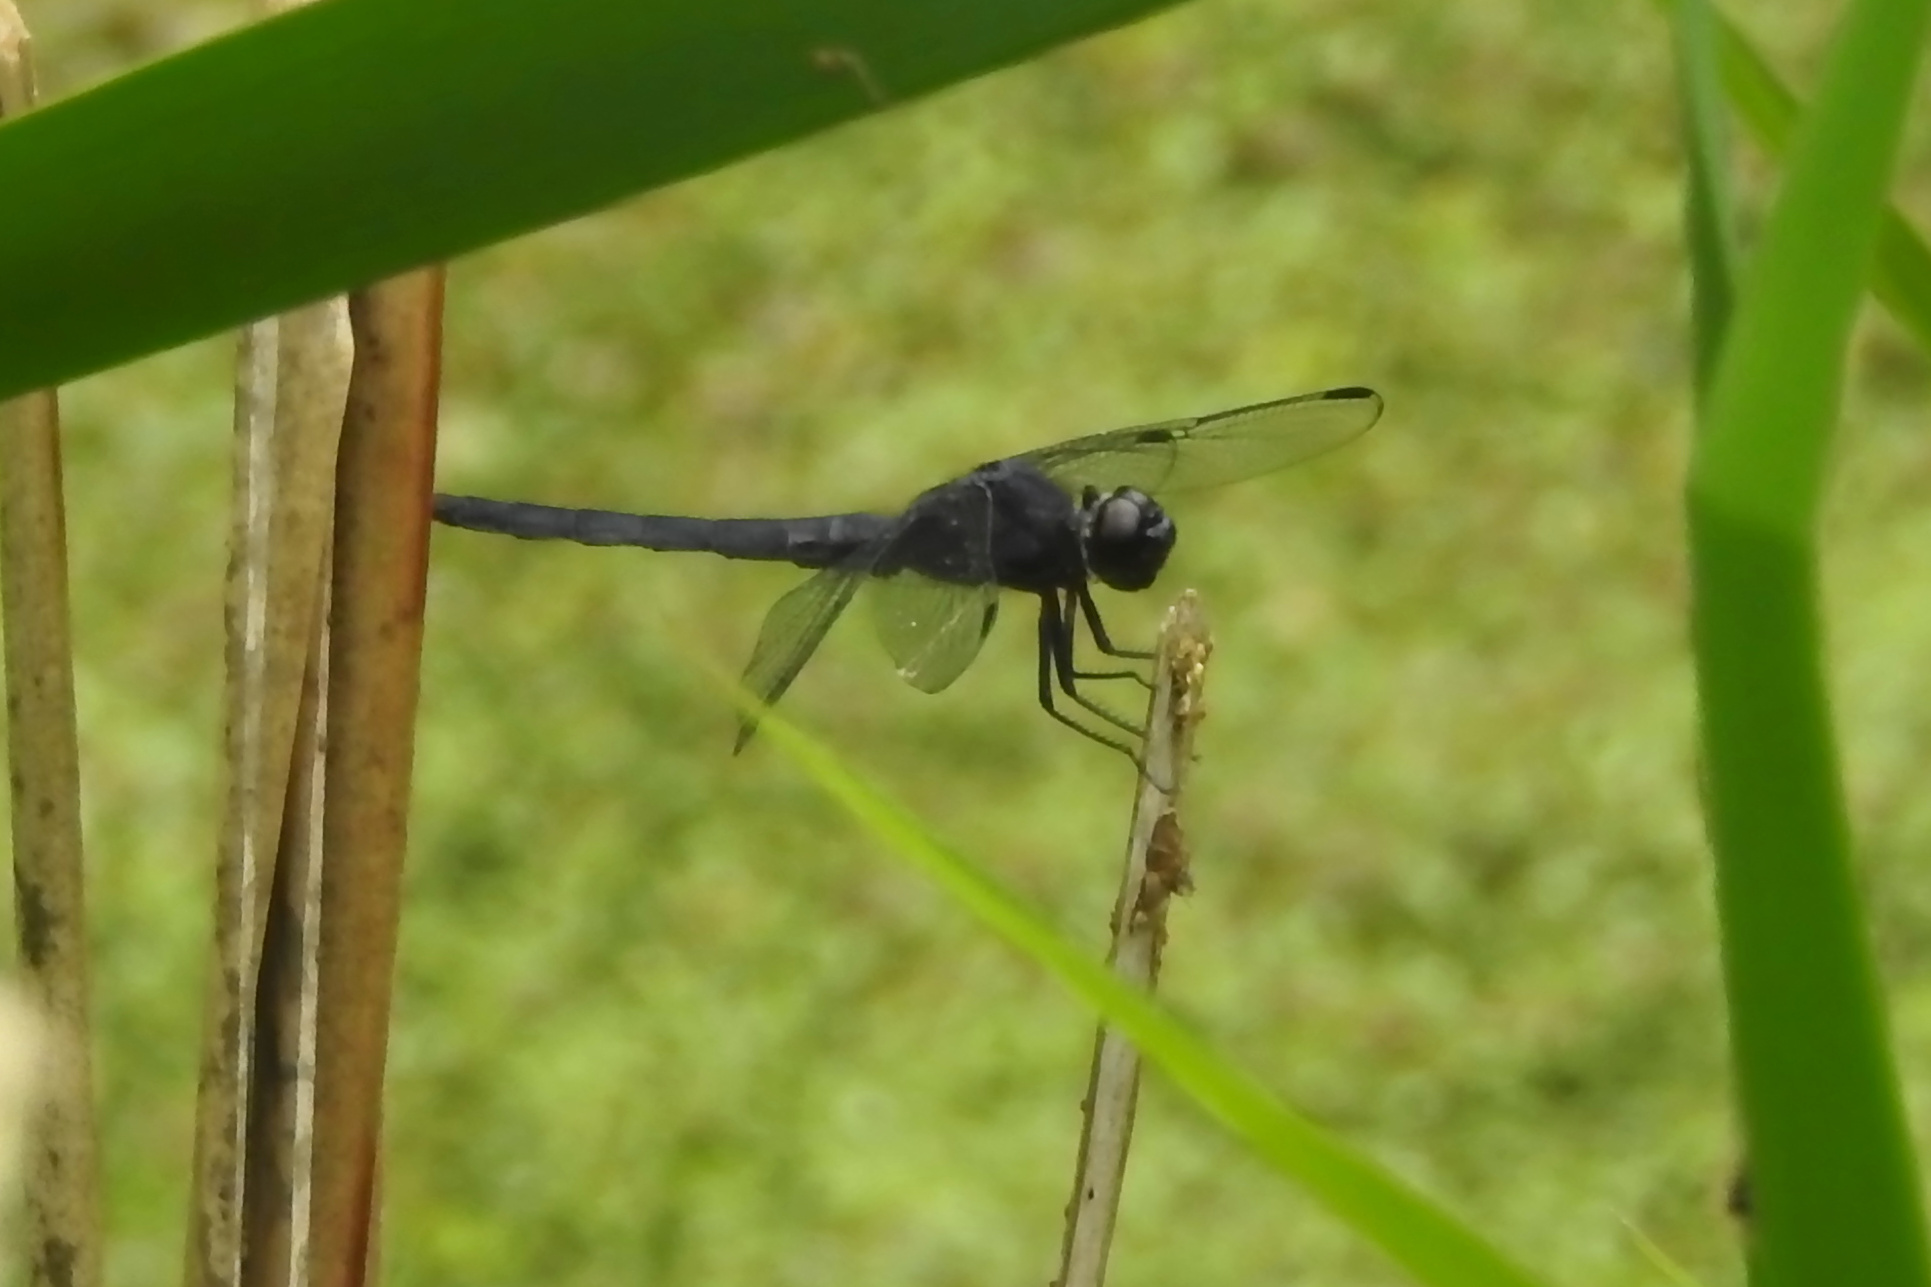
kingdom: Animalia
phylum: Arthropoda
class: Insecta
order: Odonata
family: Libellulidae
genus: Libellula
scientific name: Libellula incesta
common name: Slaty skimmer
